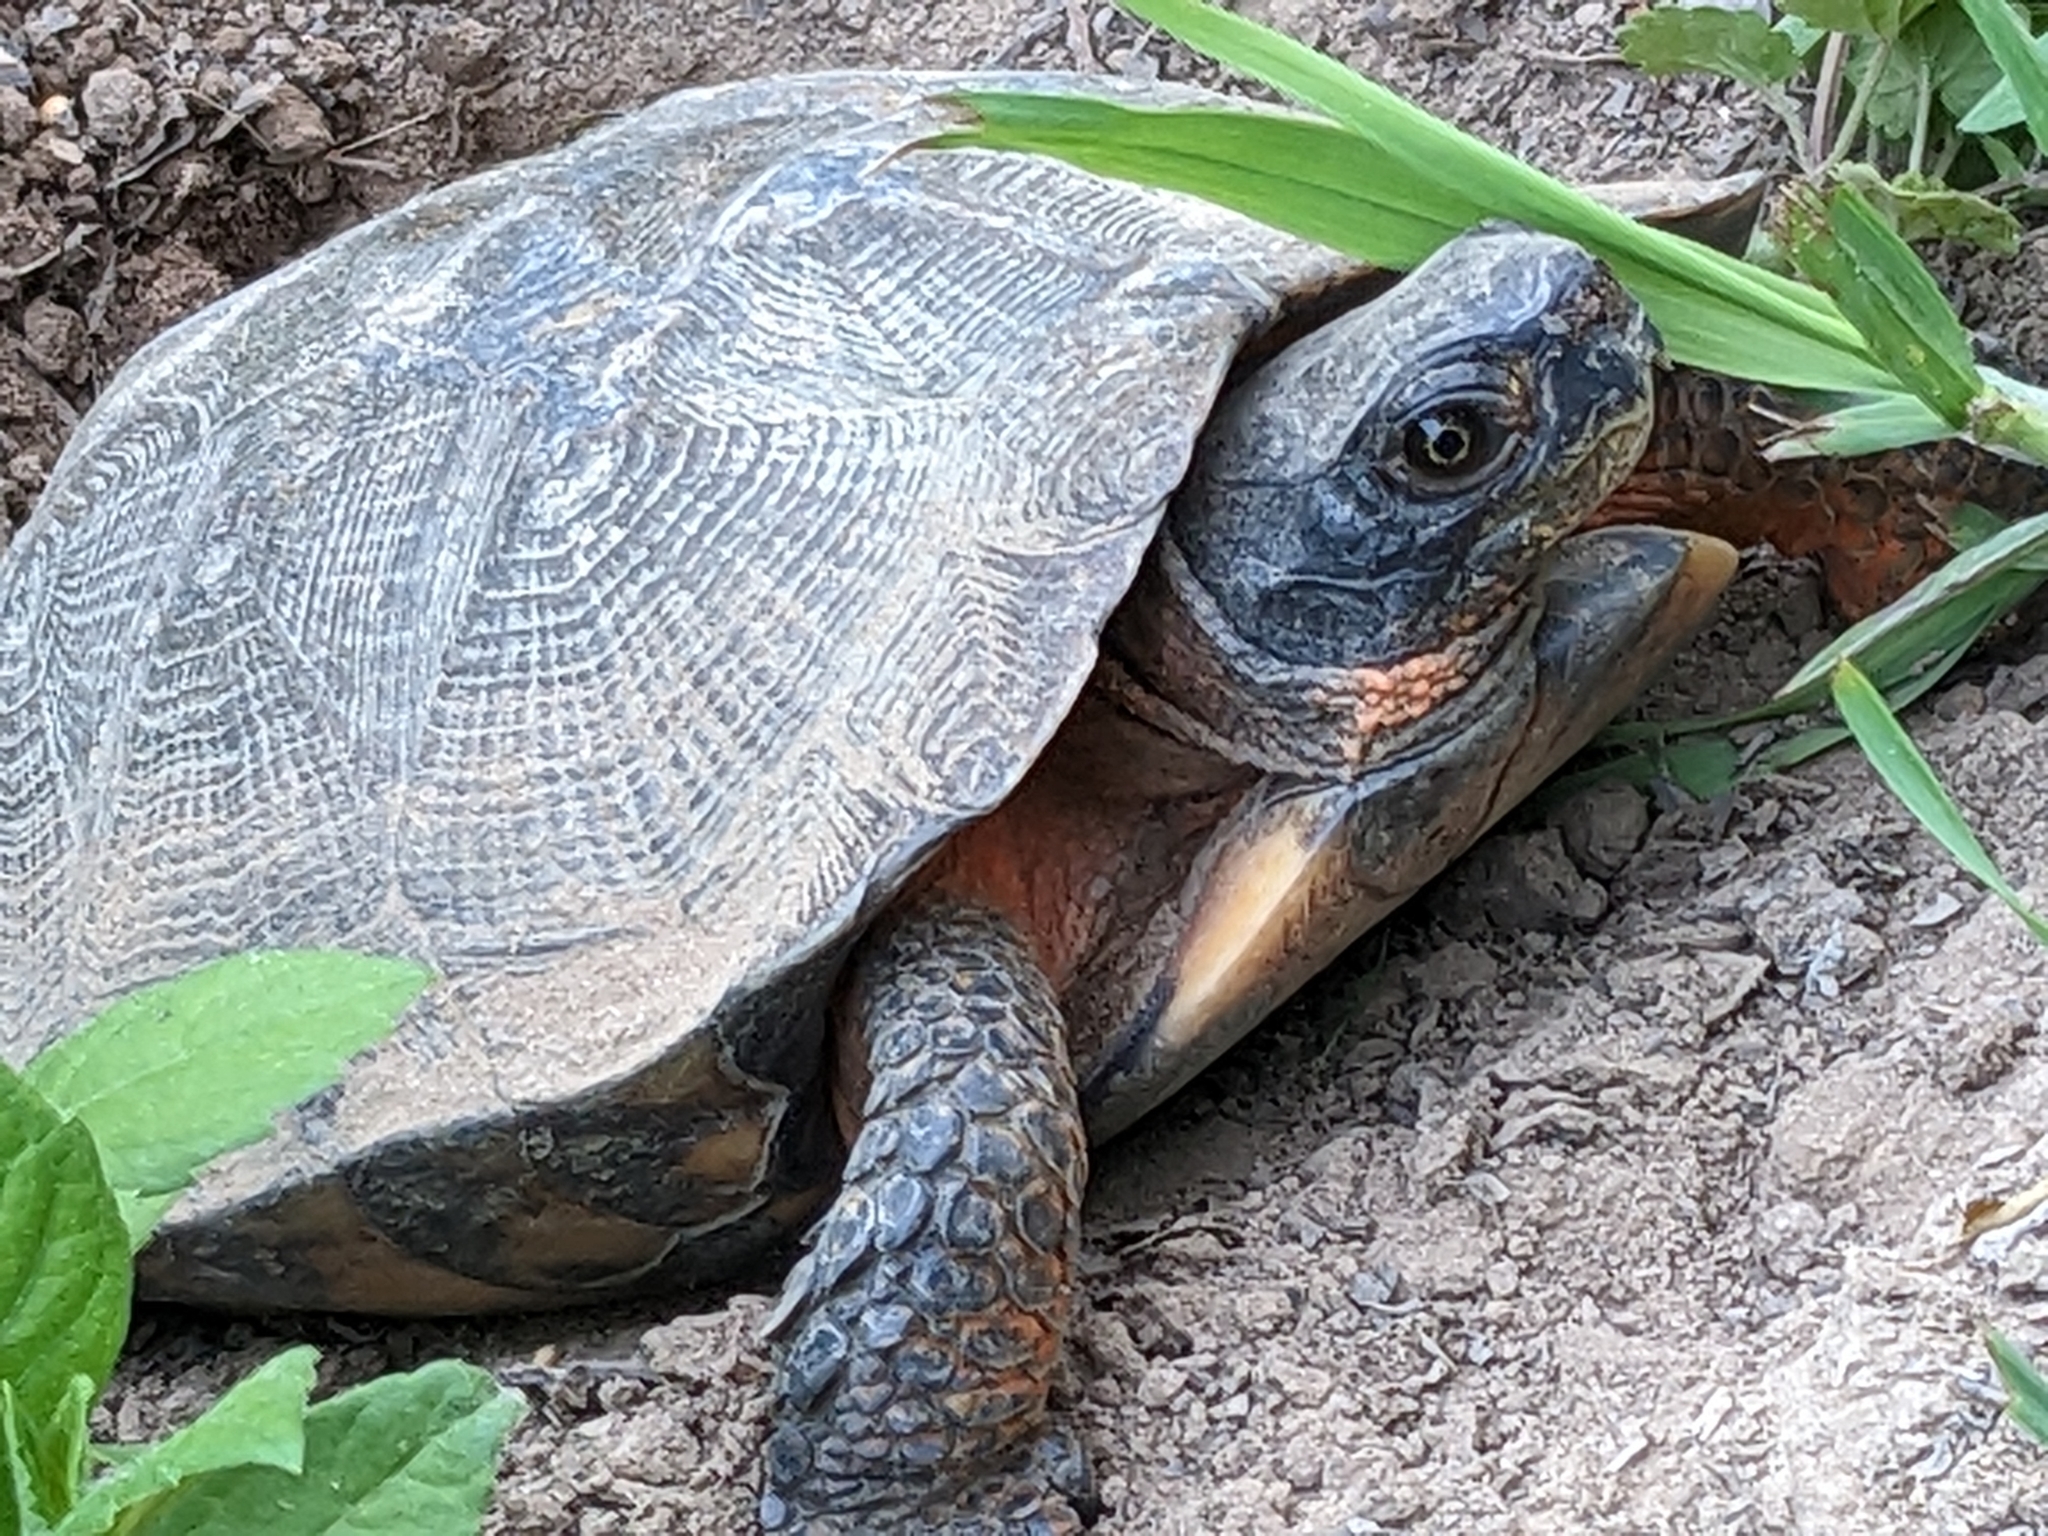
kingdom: Animalia
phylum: Chordata
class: Testudines
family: Emydidae
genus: Glyptemys
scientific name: Glyptemys insculpta
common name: Wood turtle
